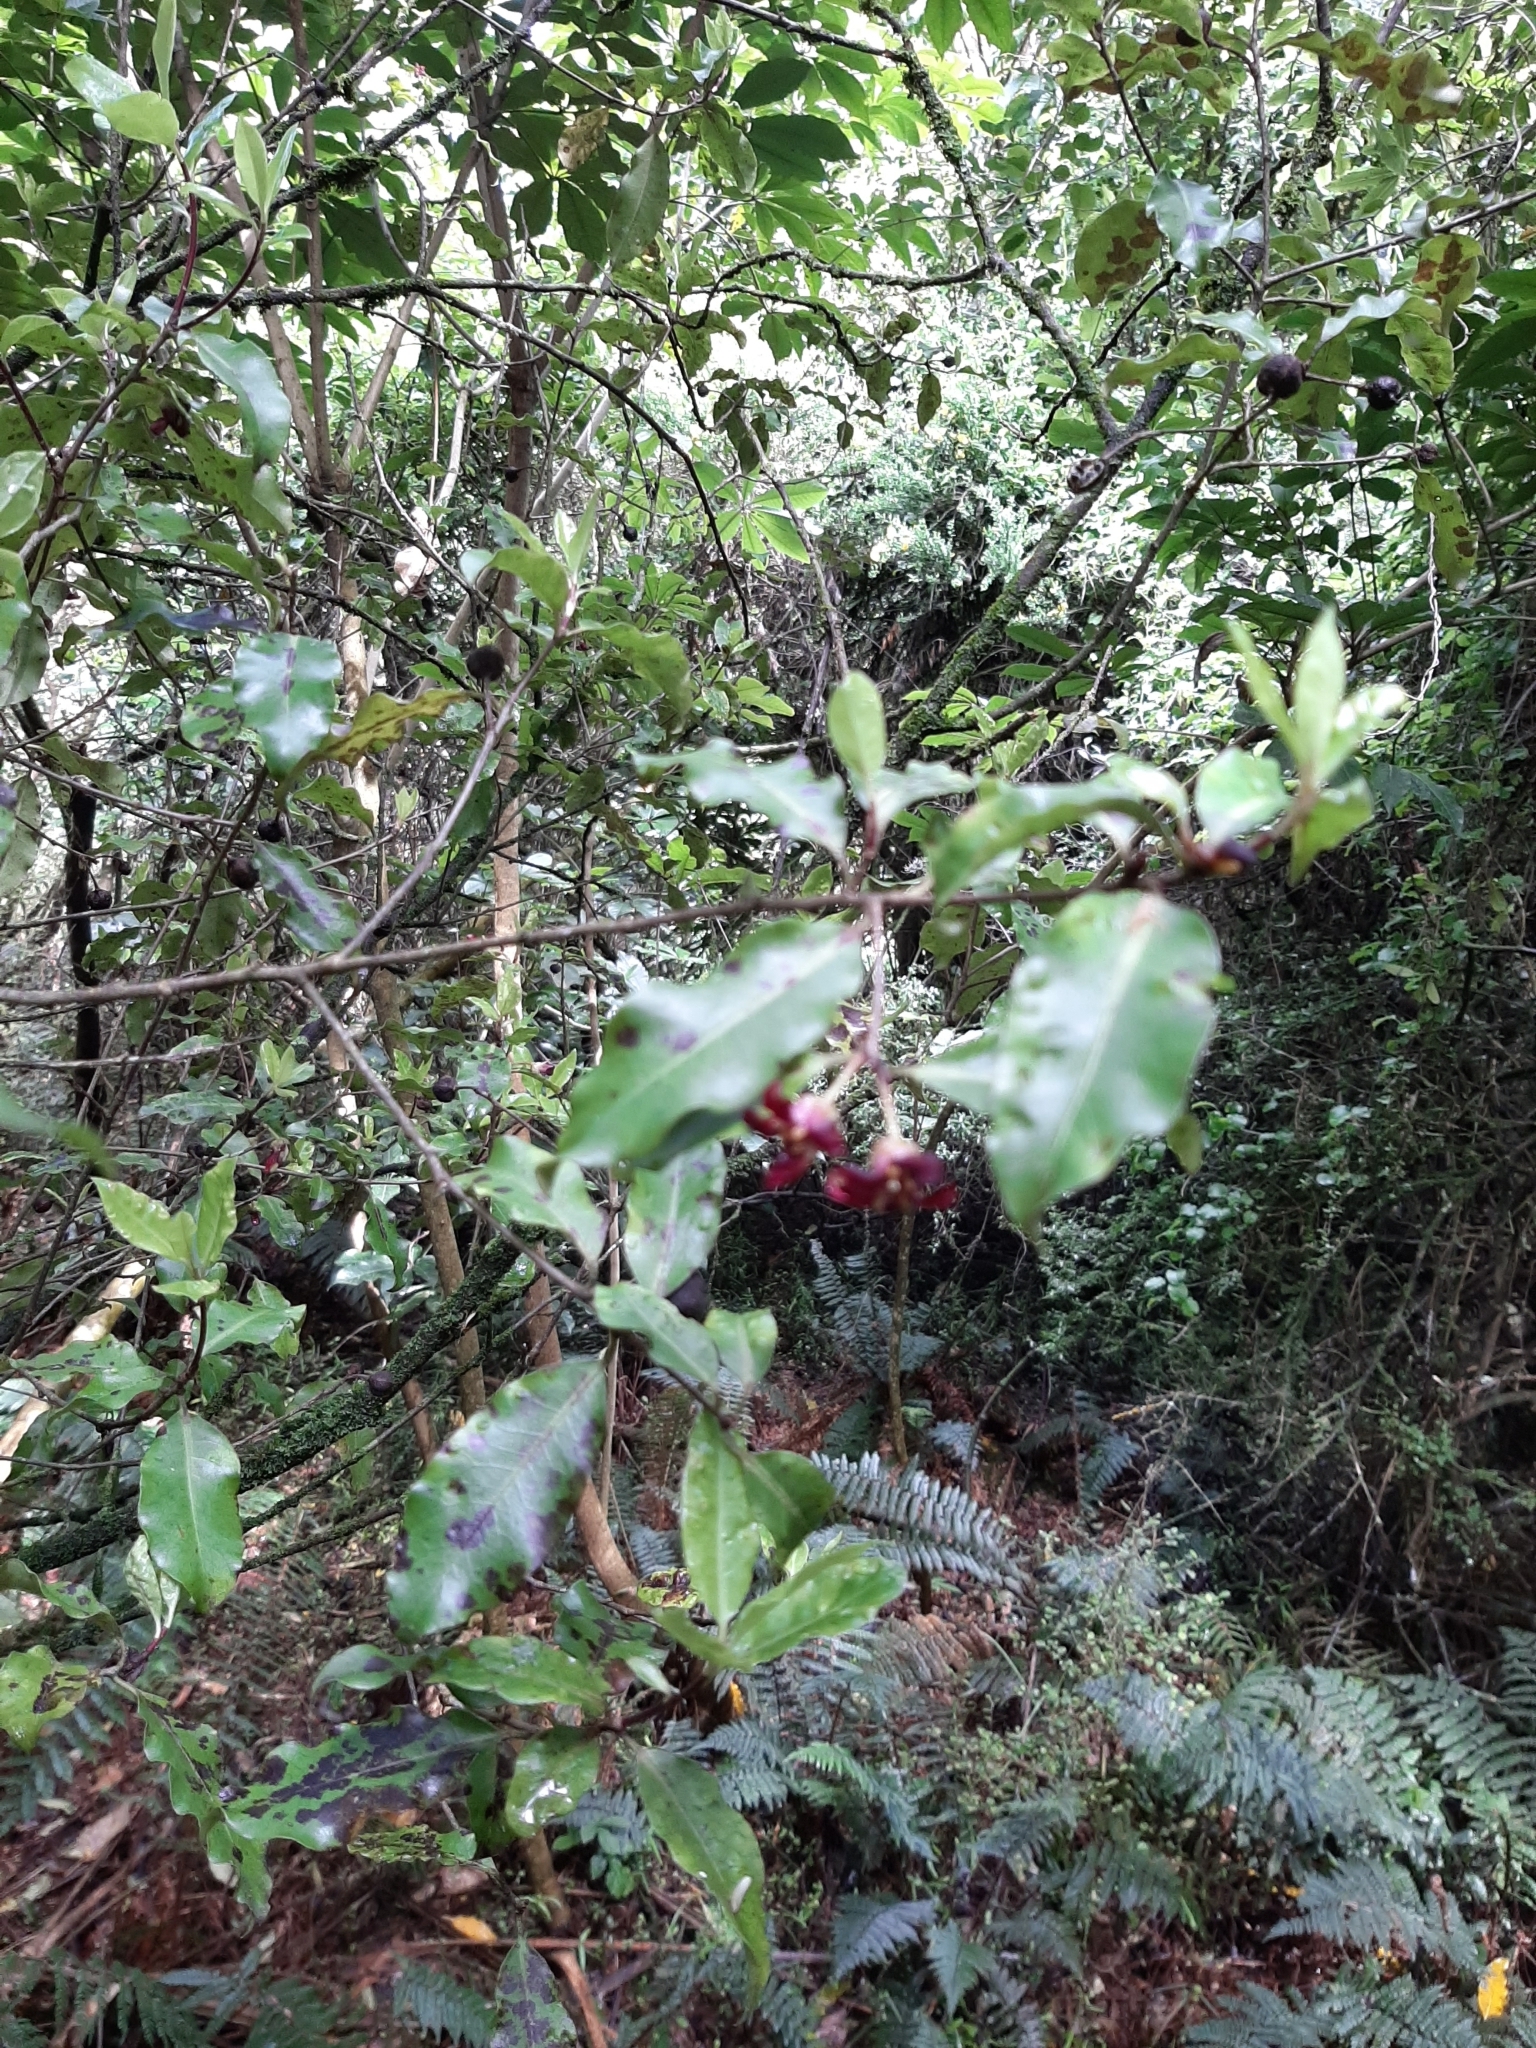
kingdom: Plantae
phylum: Tracheophyta
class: Magnoliopsida
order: Apiales
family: Pittosporaceae
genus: Pittosporum
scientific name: Pittosporum tenuifolium
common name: Kohuhu
